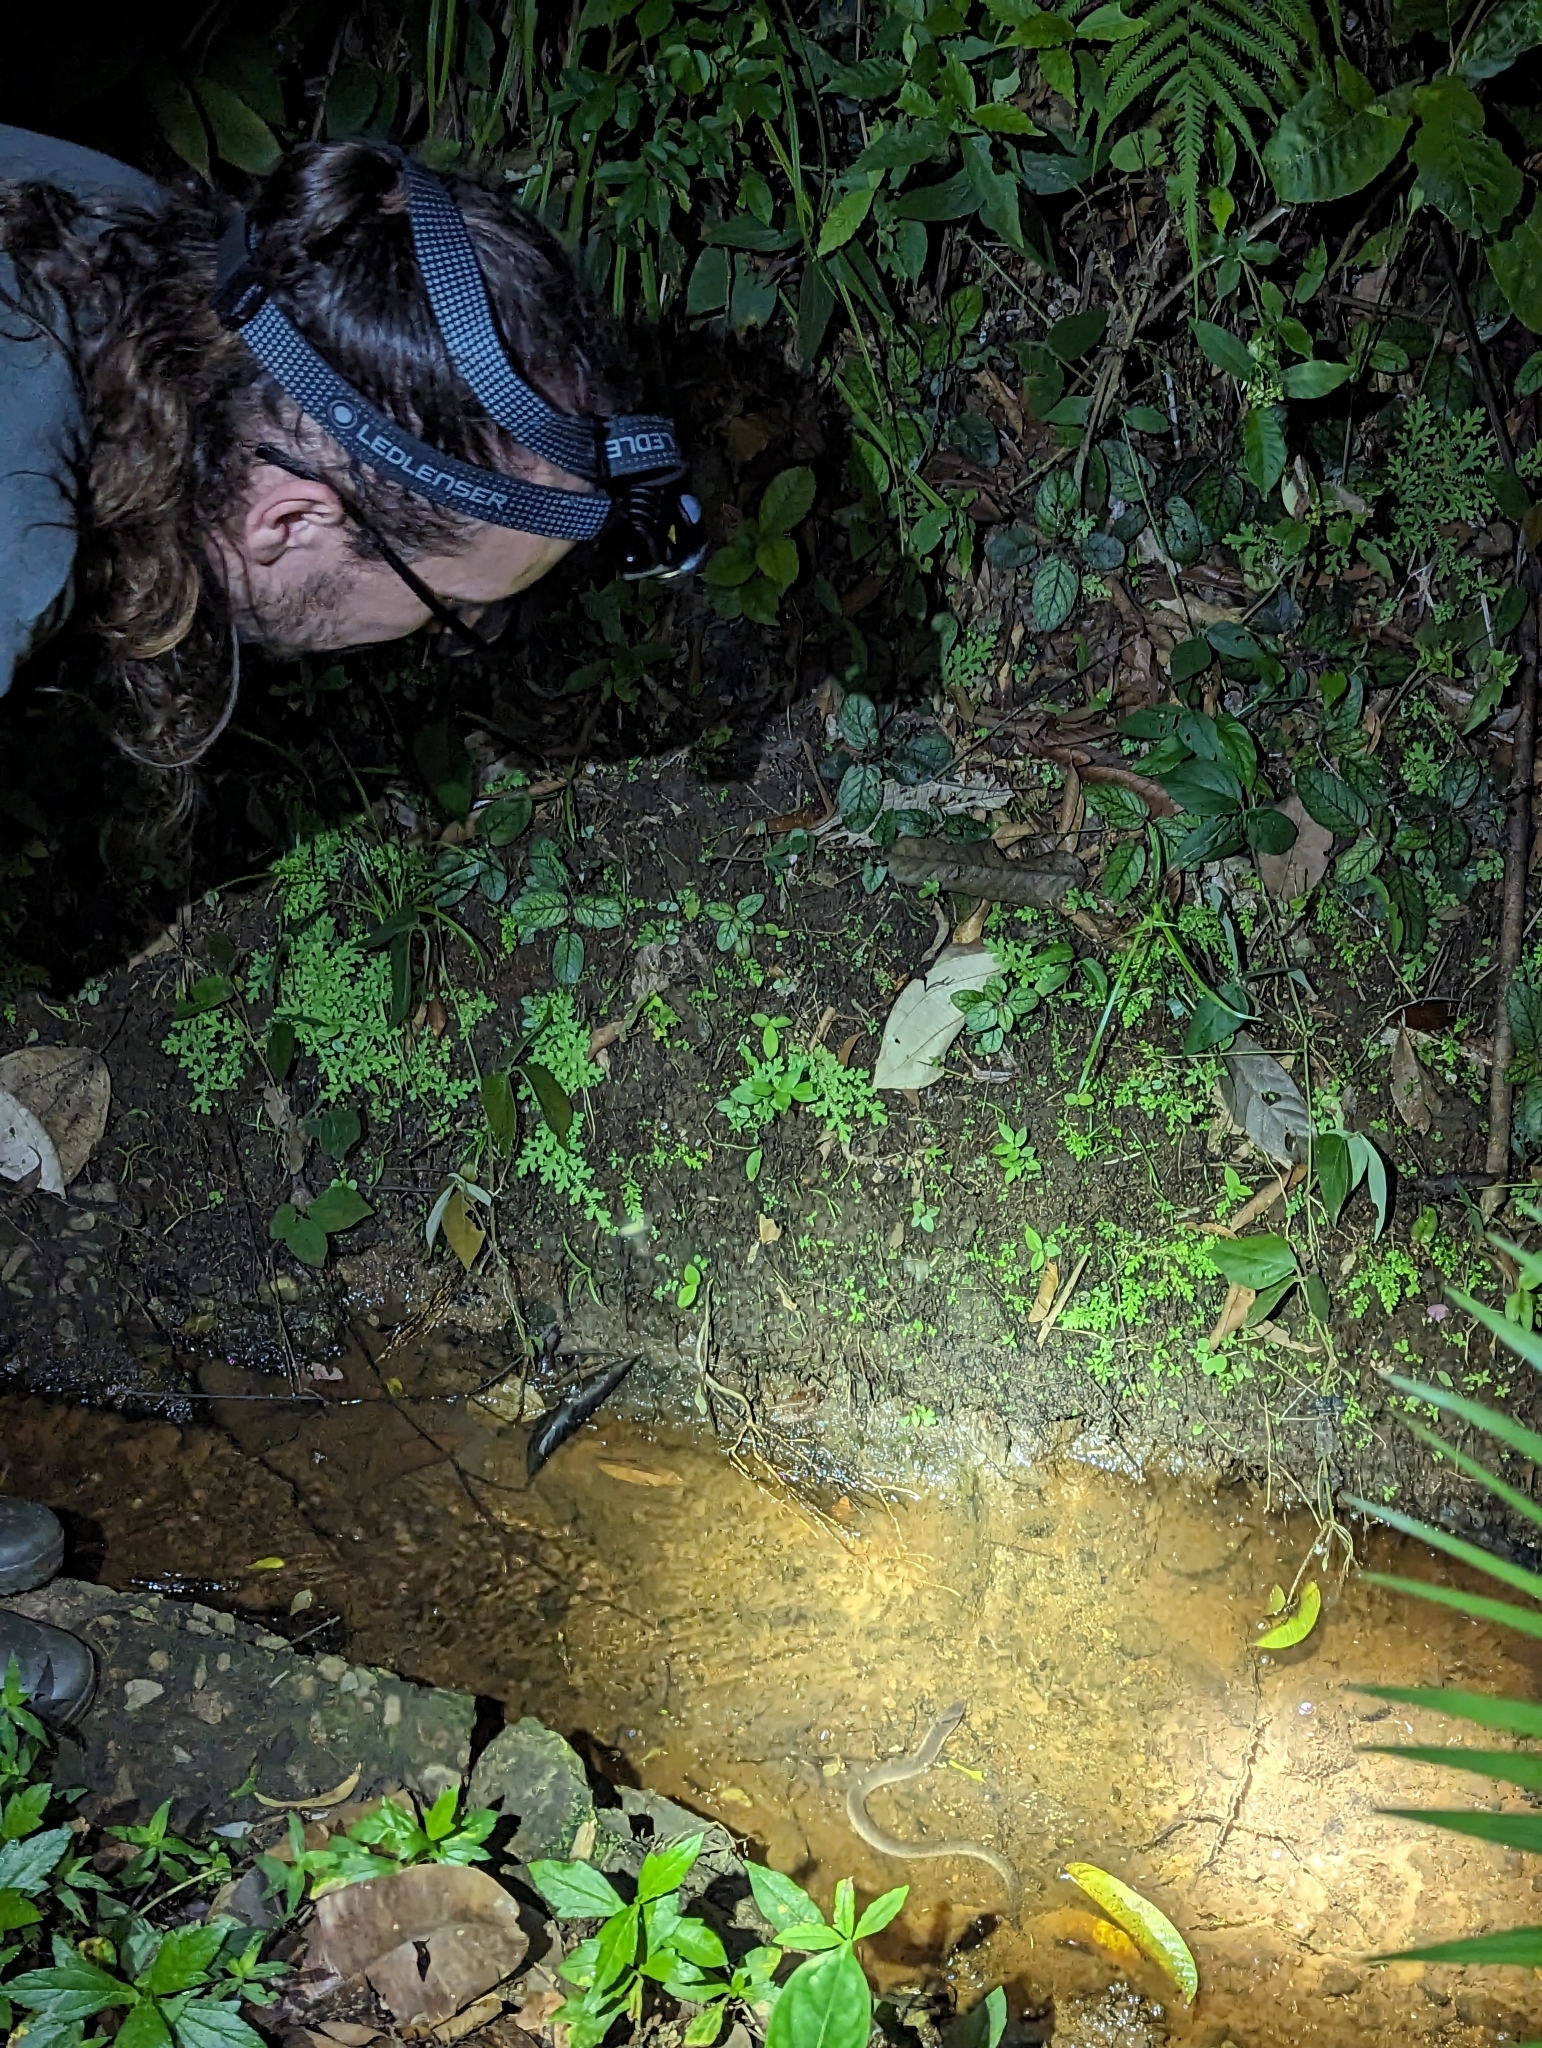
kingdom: Animalia
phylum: Chordata
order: Synbranchiformes
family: Synbranchidae
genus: Synbranchus
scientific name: Synbranchus marmoratus
